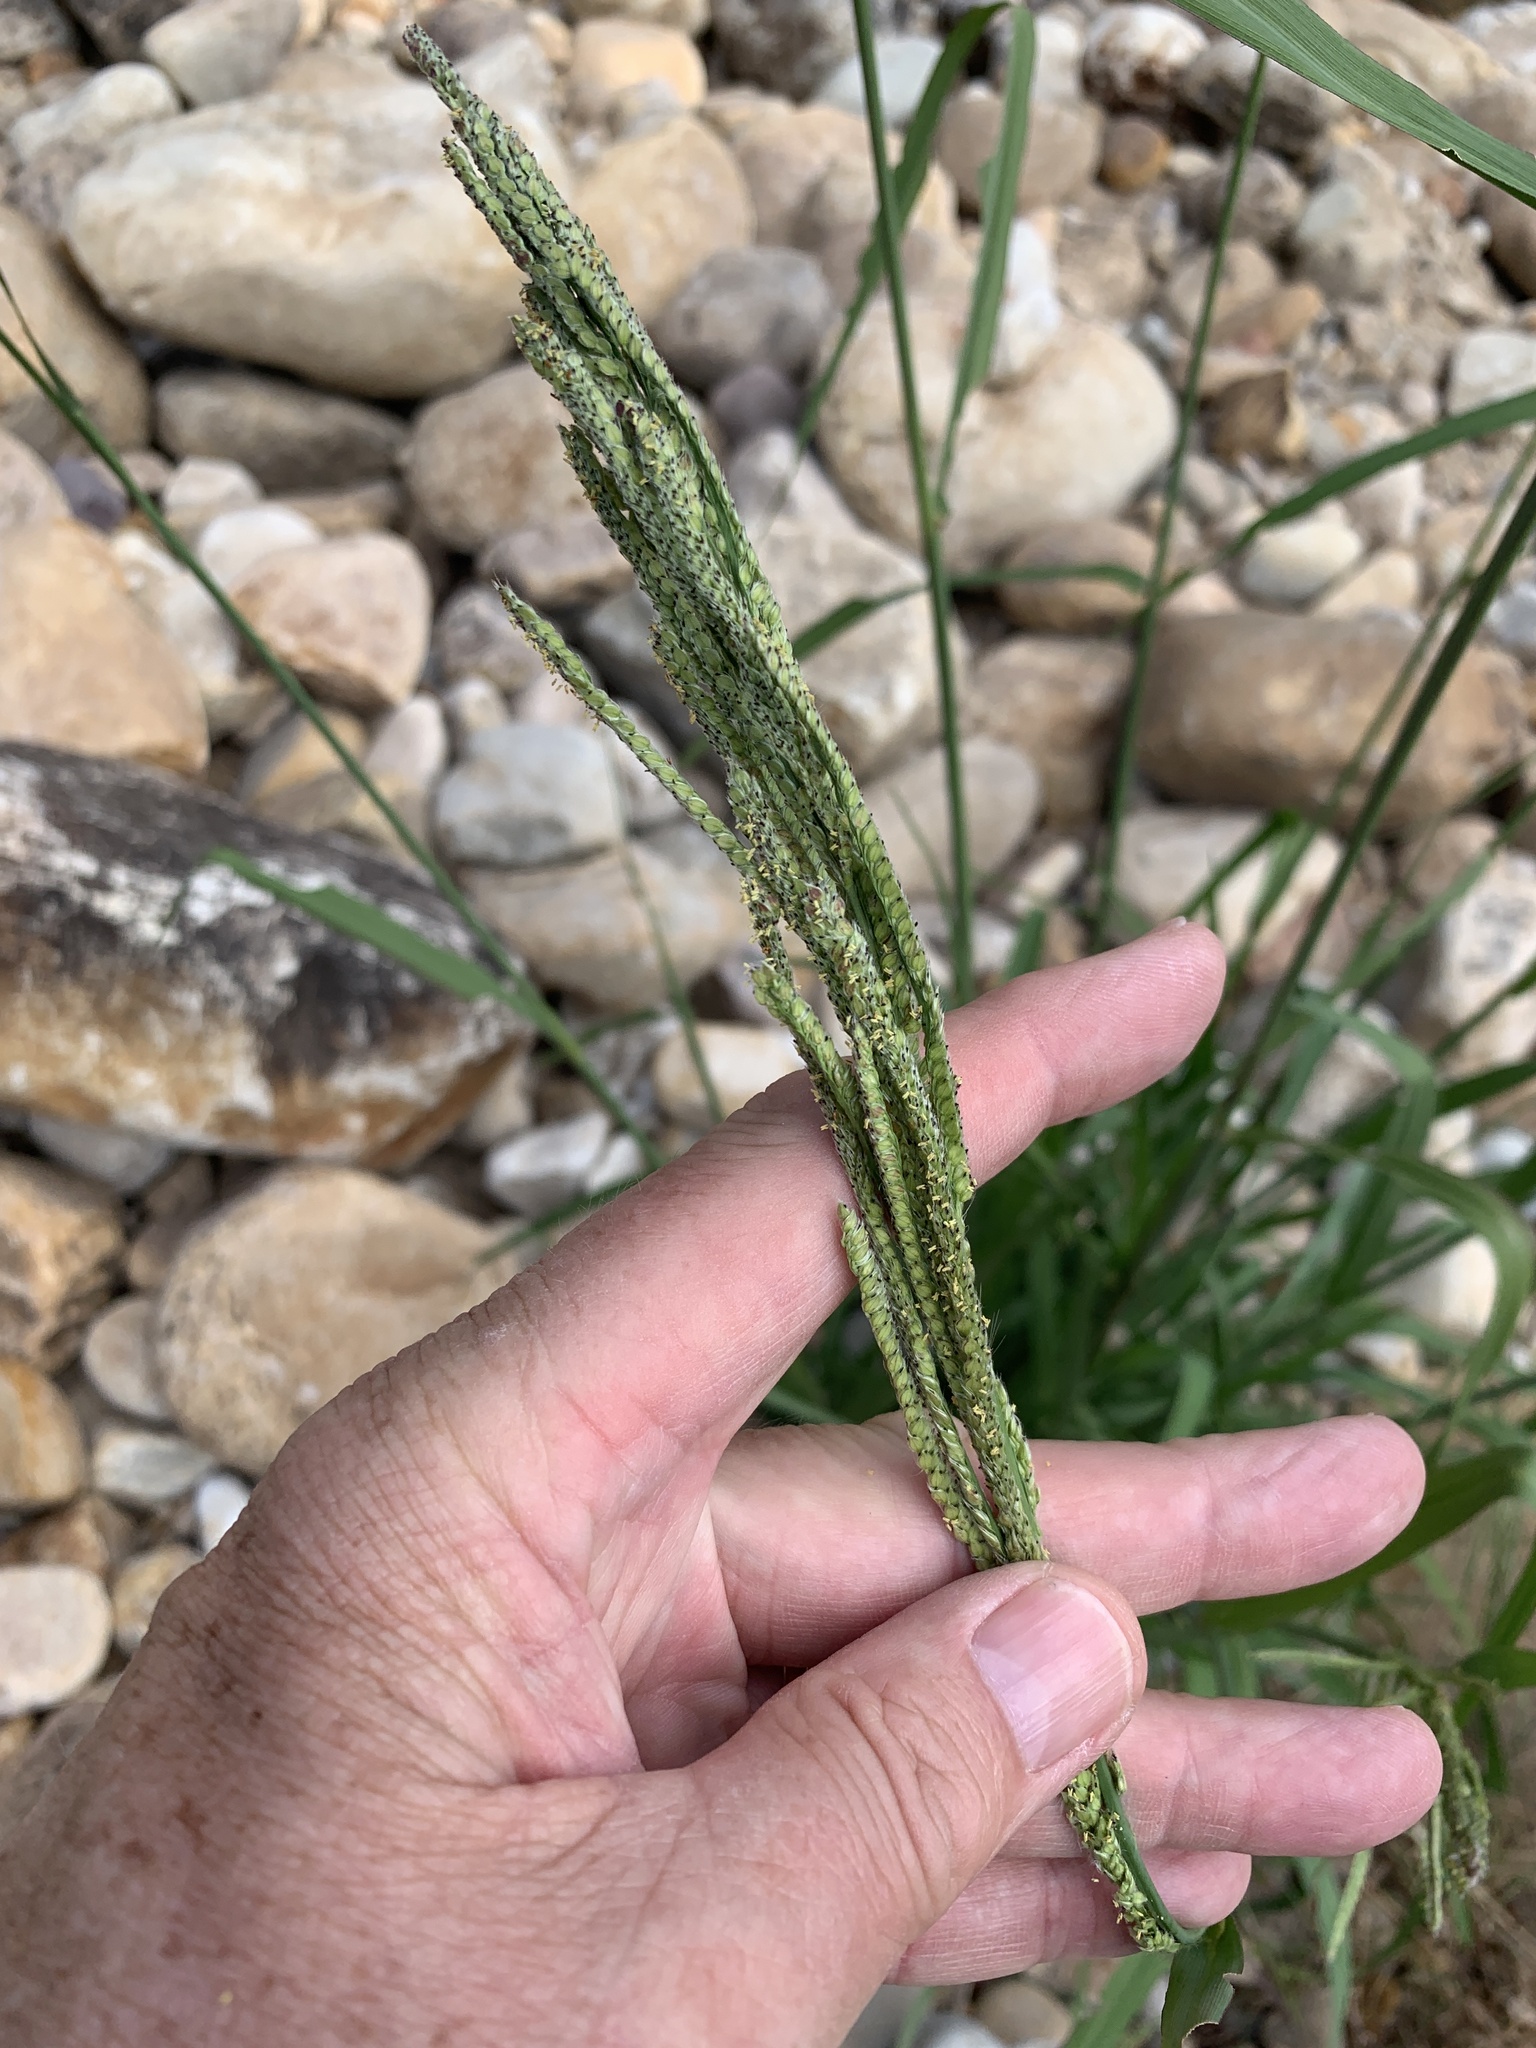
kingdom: Plantae
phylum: Tracheophyta
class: Liliopsida
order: Poales
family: Poaceae
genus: Paspalum
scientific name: Paspalum urvillei
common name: Vasey's grass
